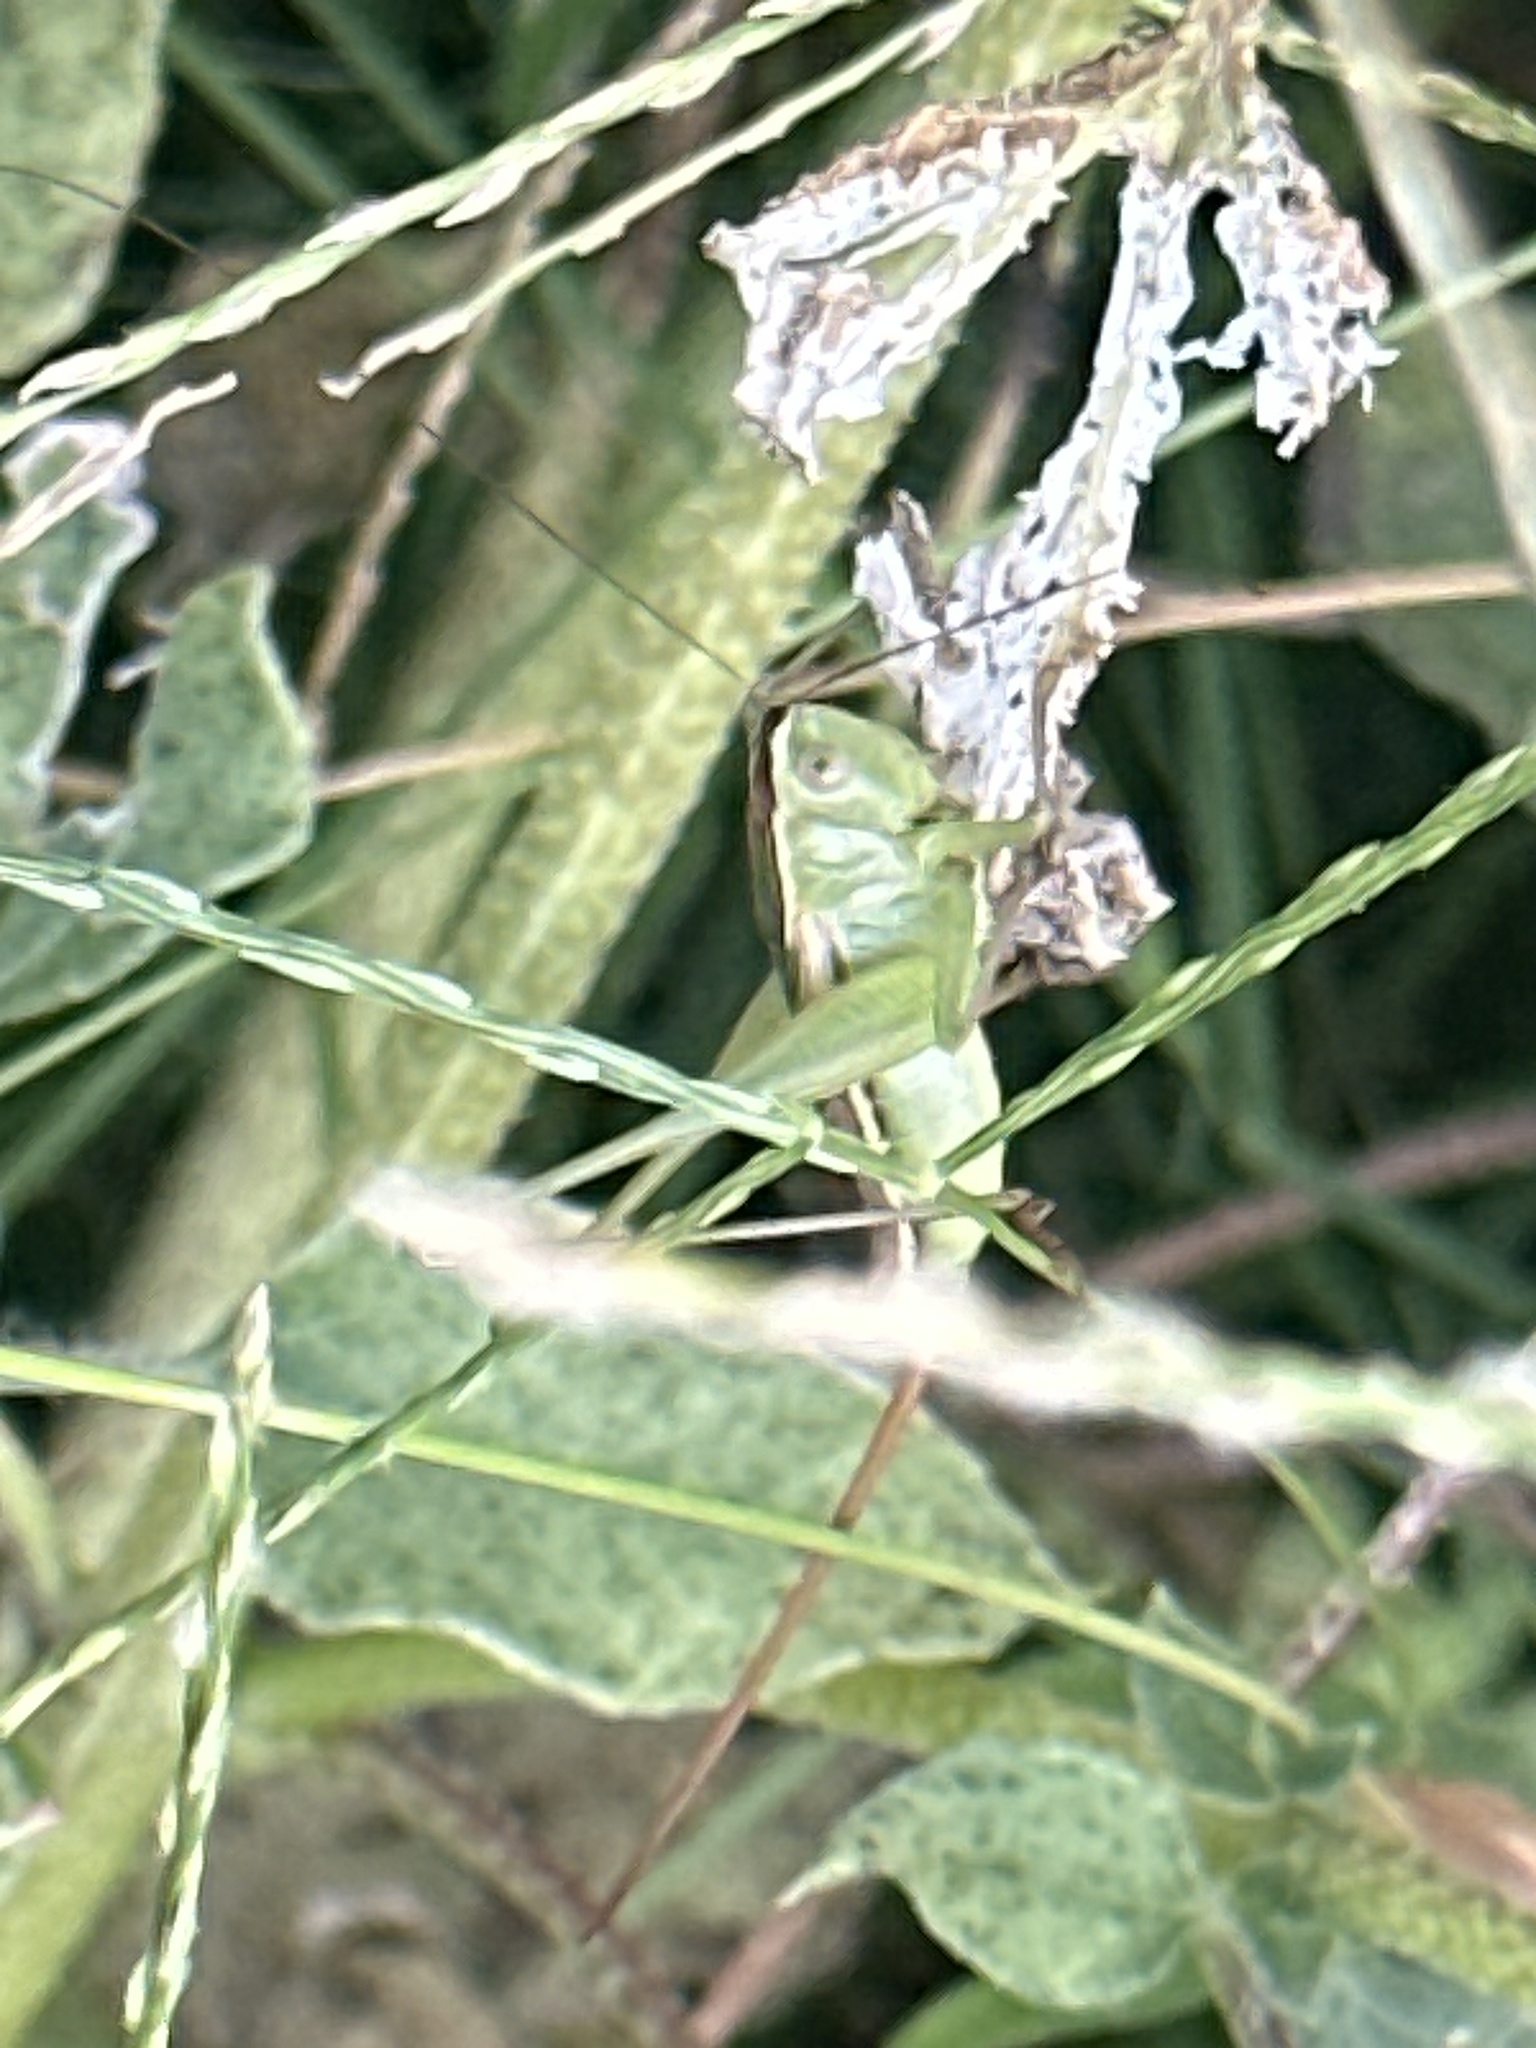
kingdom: Animalia
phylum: Arthropoda
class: Insecta
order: Orthoptera
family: Tettigoniidae
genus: Conocephalus
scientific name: Conocephalus strictus
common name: Straight-lanced katydid
